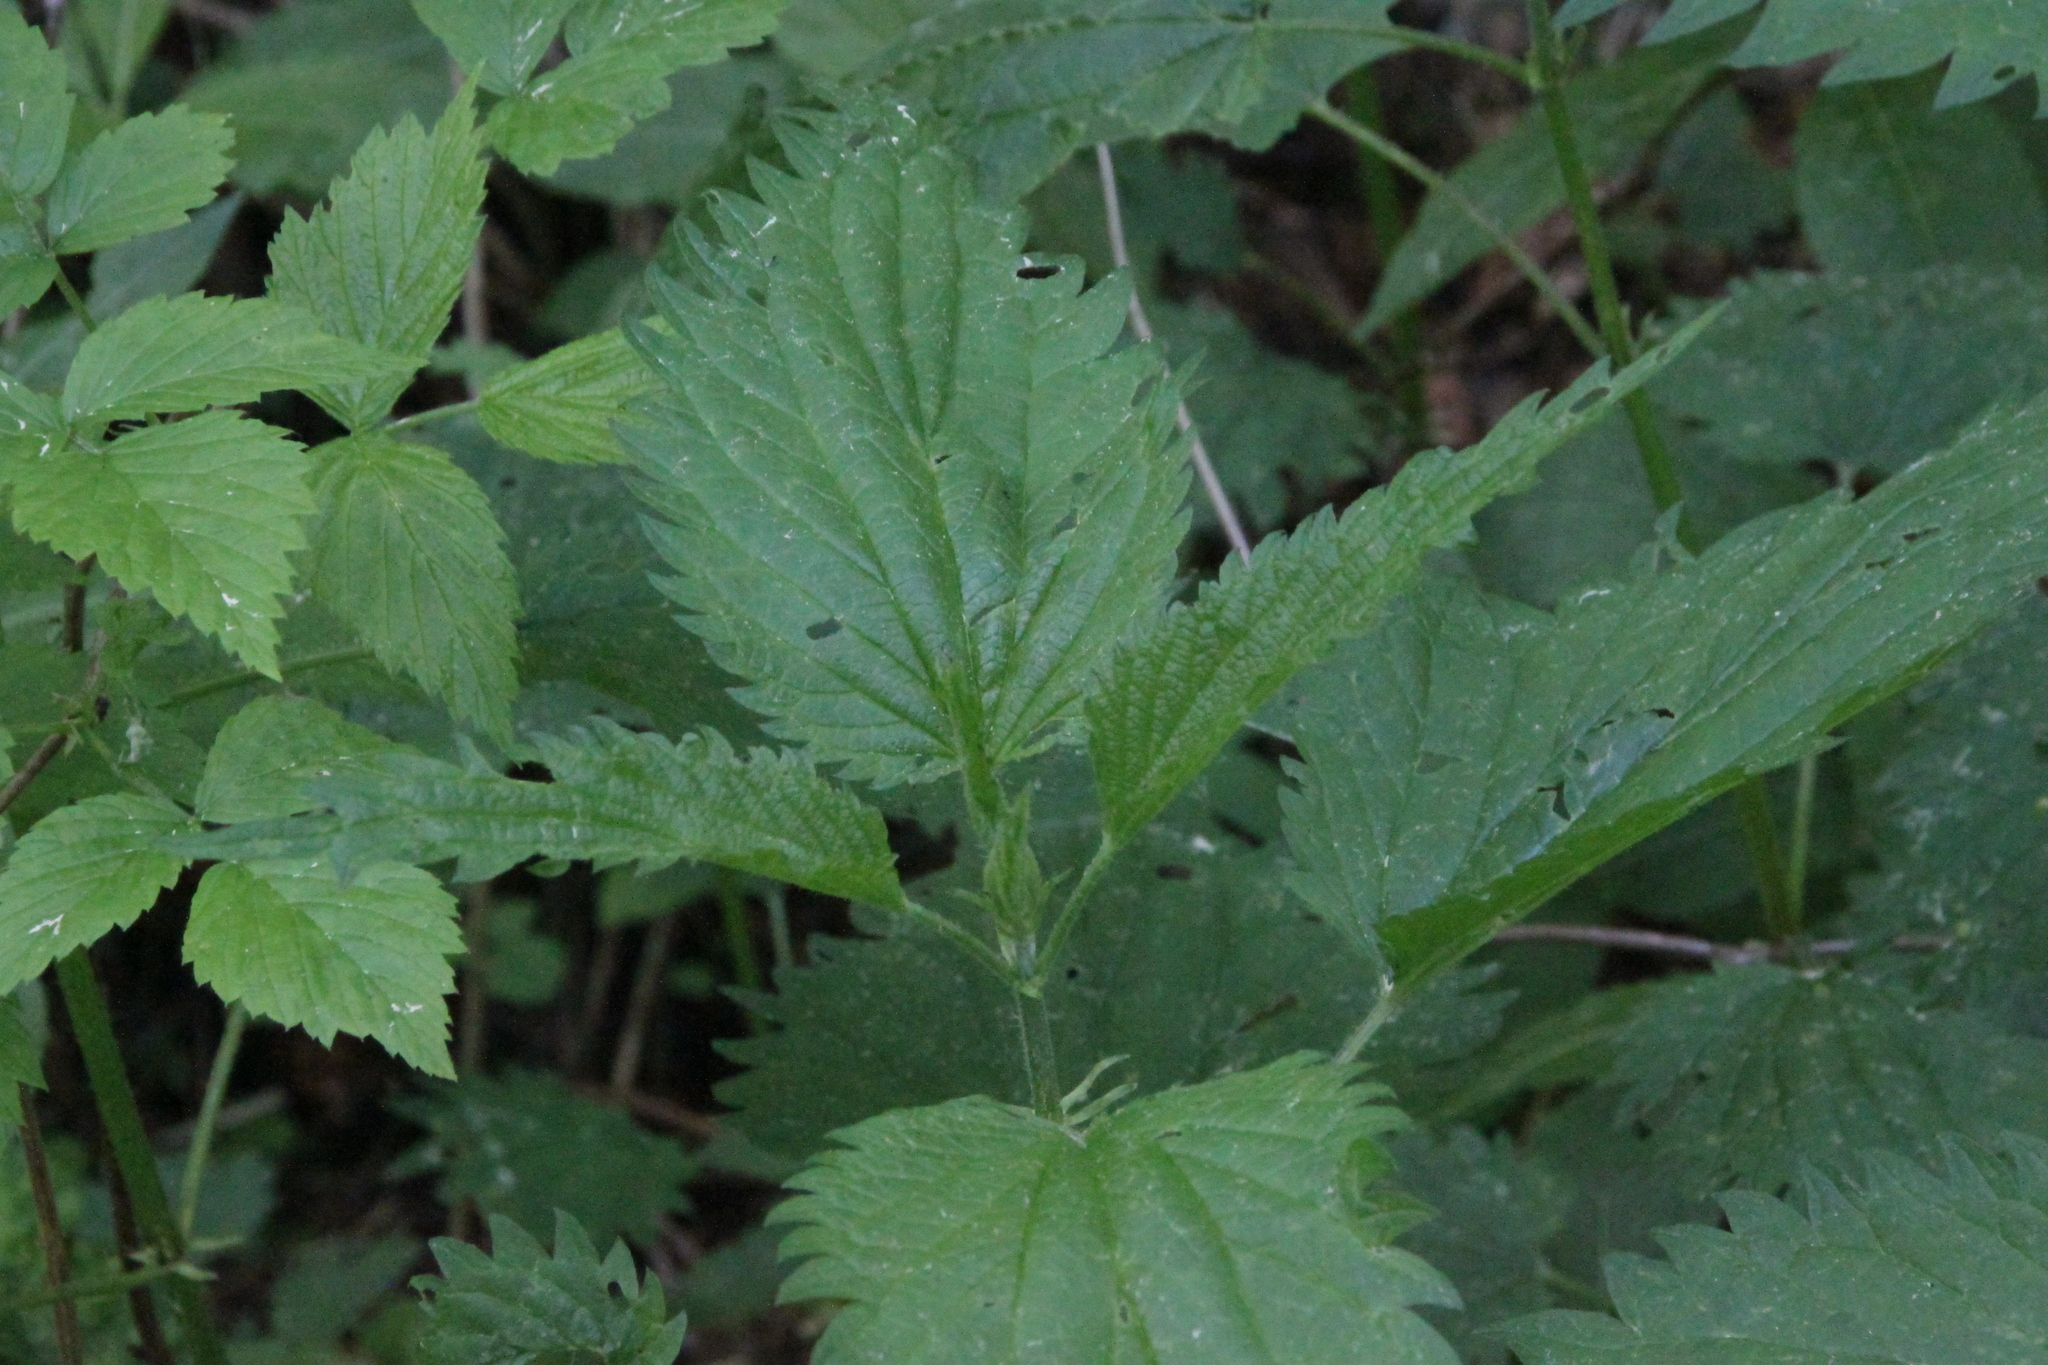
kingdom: Plantae
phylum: Tracheophyta
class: Magnoliopsida
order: Rosales
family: Urticaceae
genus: Urtica
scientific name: Urtica dioica
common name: Common nettle
